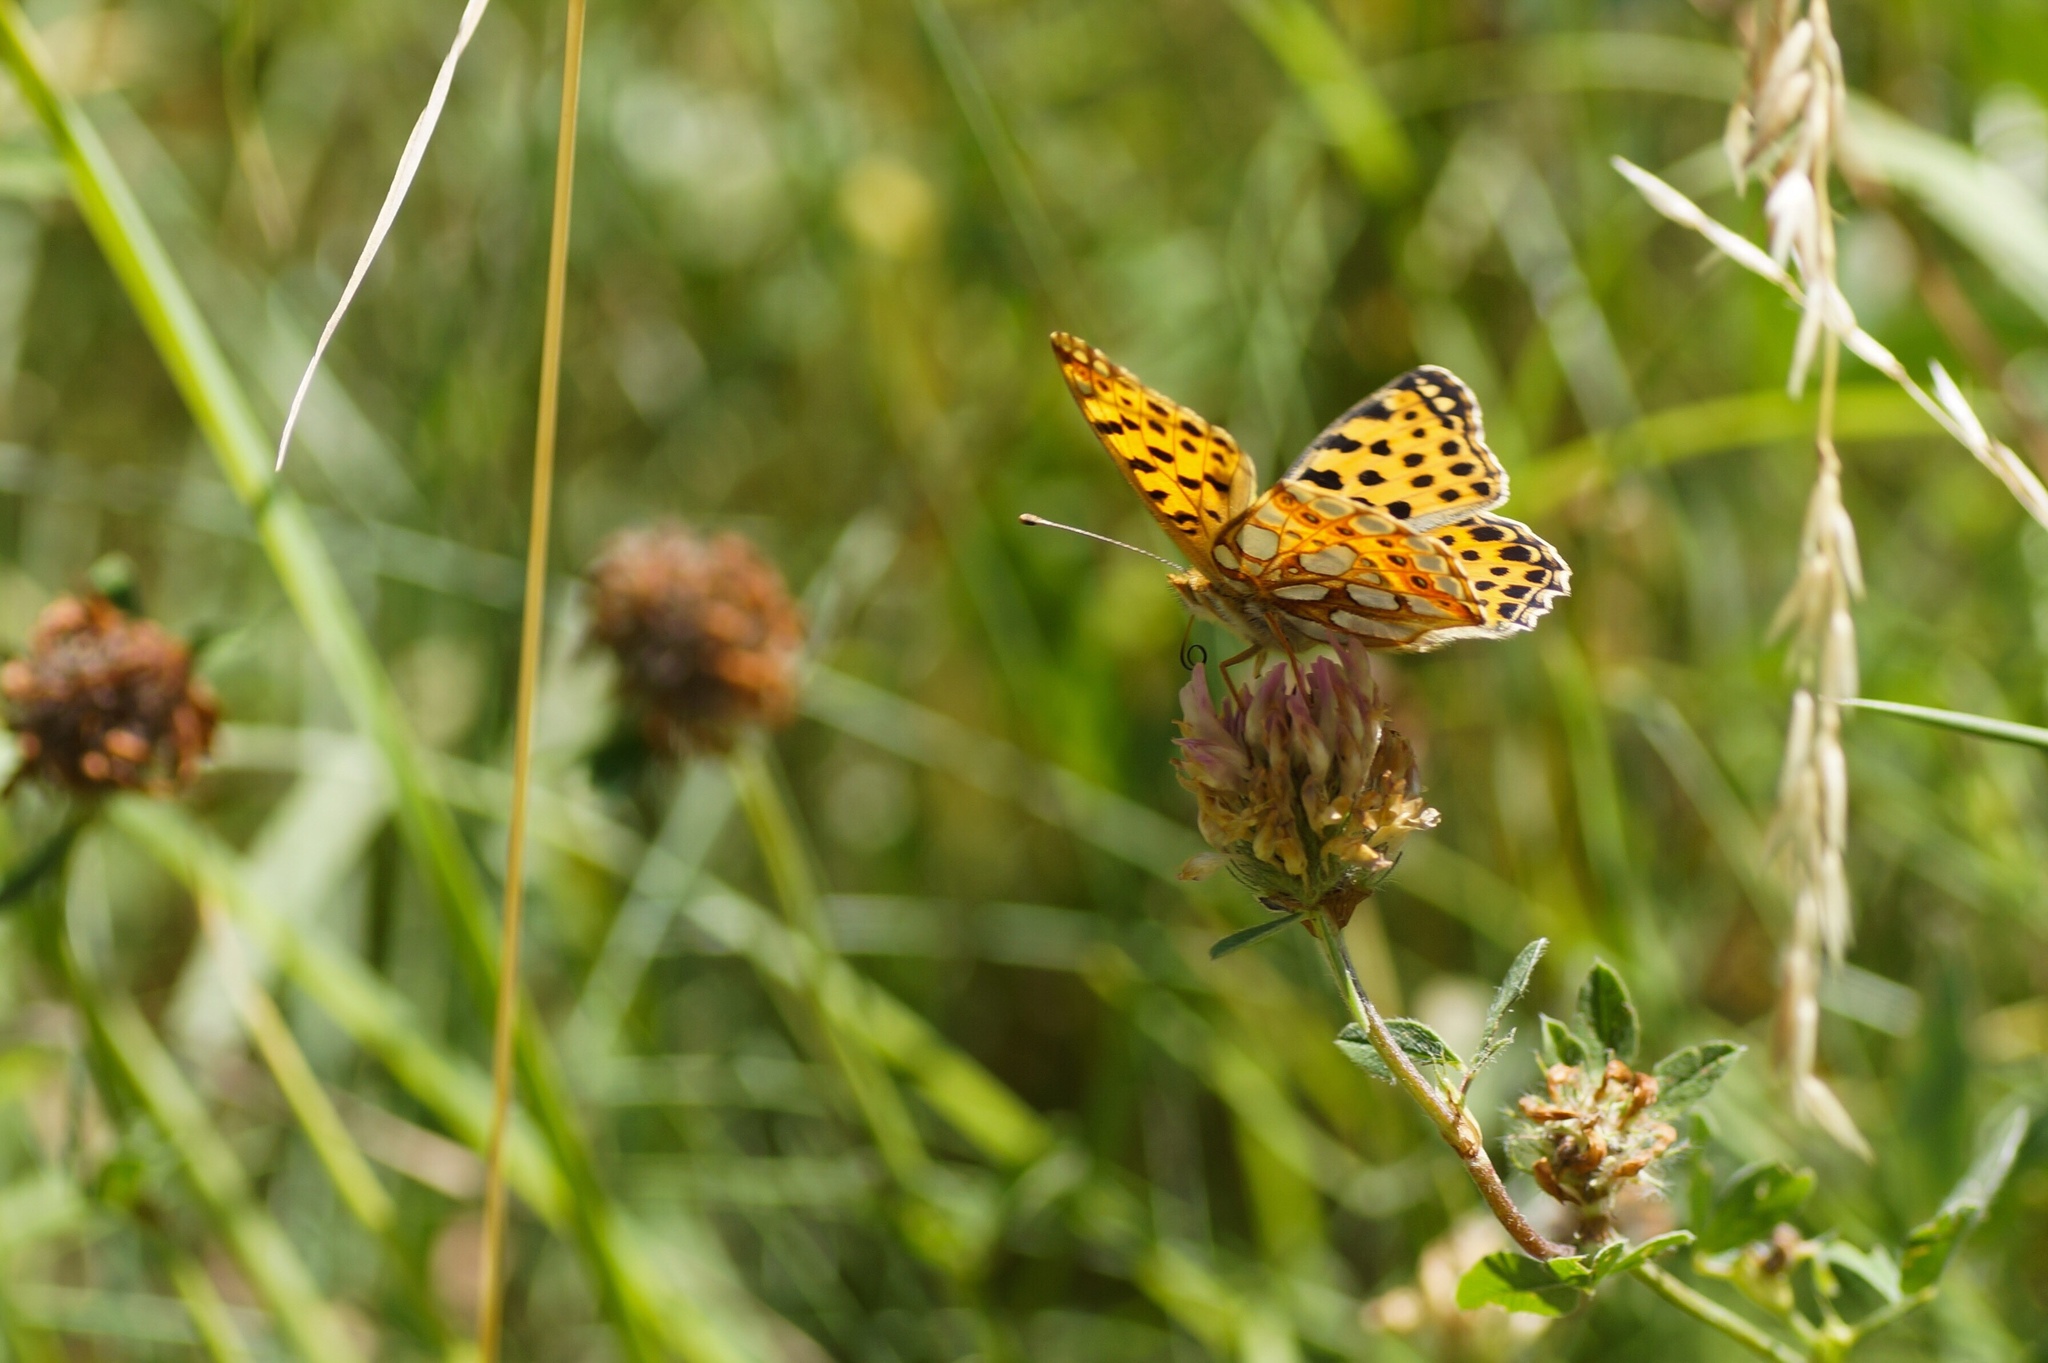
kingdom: Animalia
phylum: Arthropoda
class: Insecta
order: Lepidoptera
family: Nymphalidae
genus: Issoria
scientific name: Issoria lathonia
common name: Queen of spain fritillary
